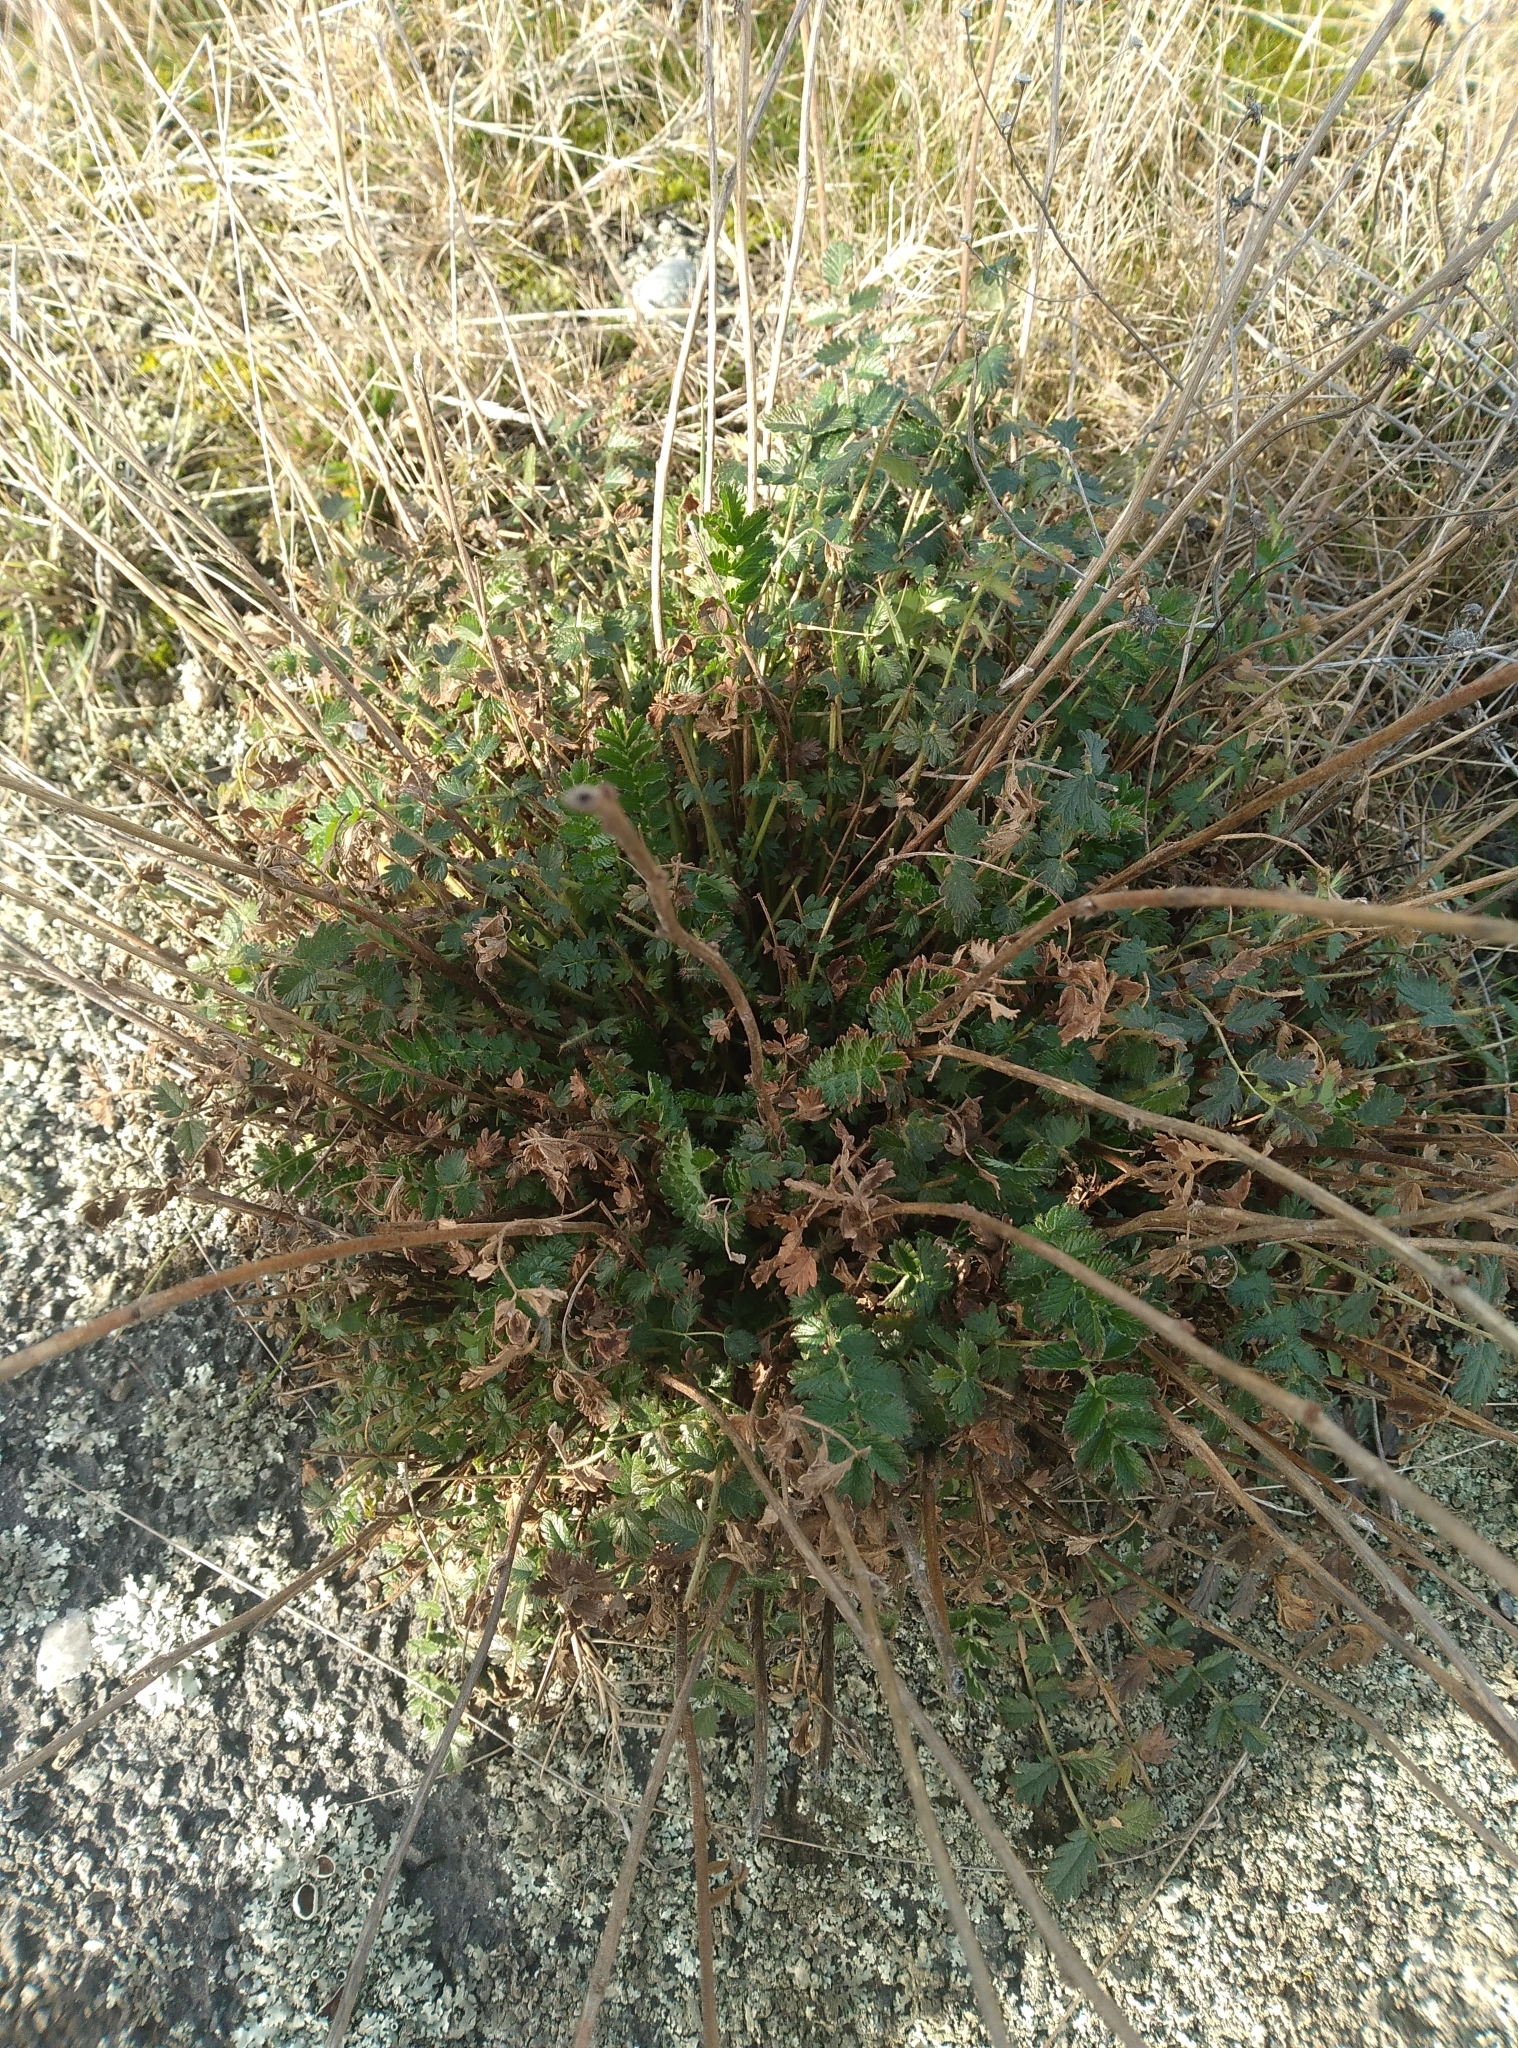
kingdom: Plantae
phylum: Tracheophyta
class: Magnoliopsida
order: Rosales
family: Rosaceae
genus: Acaena
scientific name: Acaena agnipila
